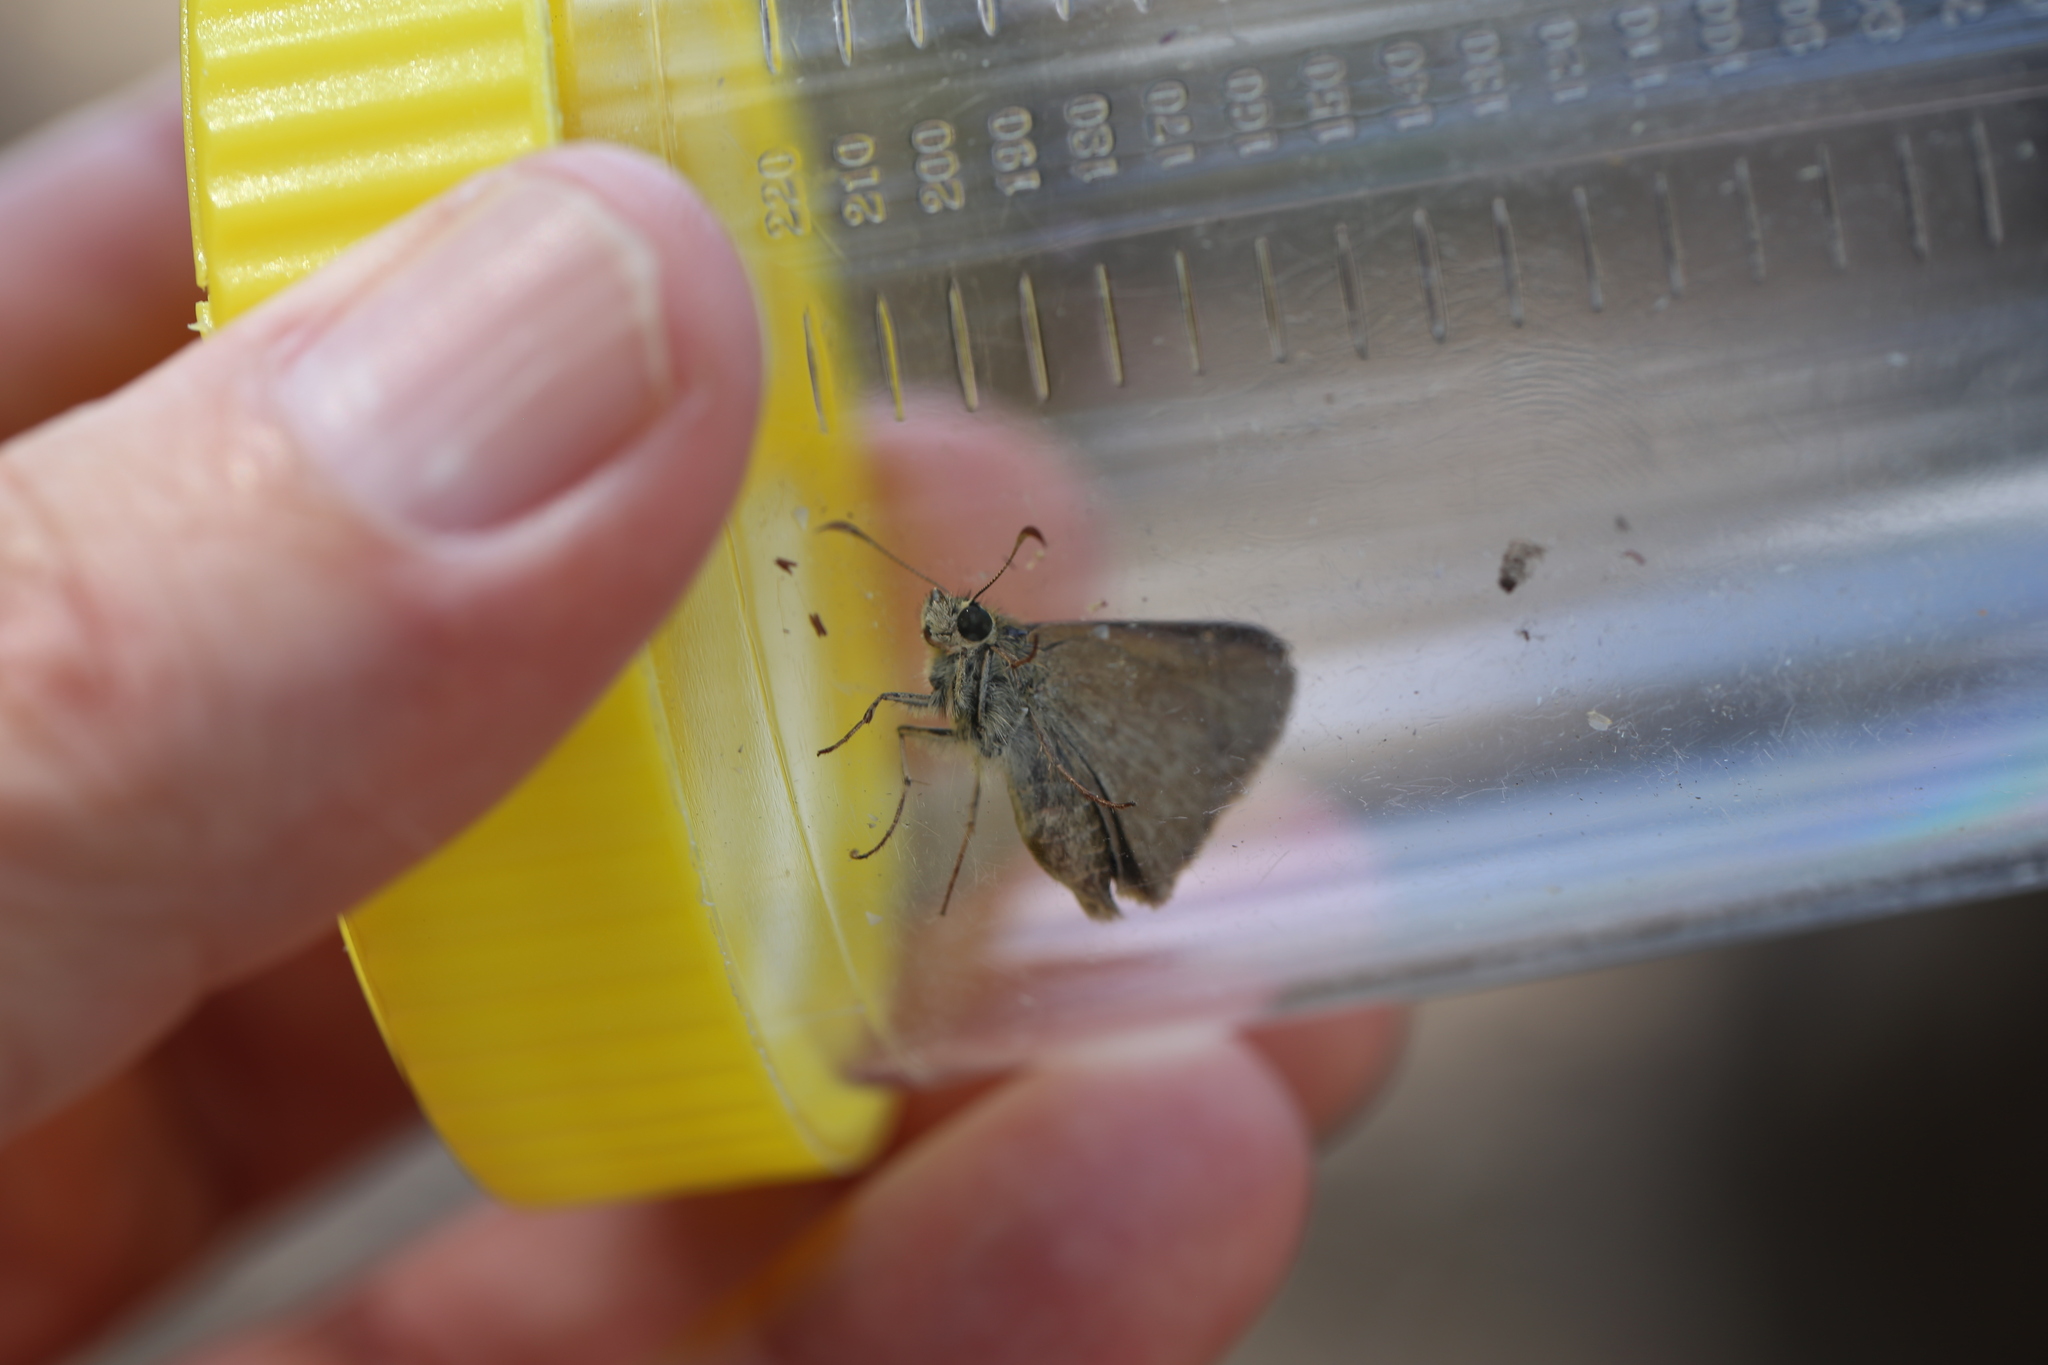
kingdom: Animalia
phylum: Arthropoda
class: Insecta
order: Lepidoptera
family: Hesperiidae
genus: Toxidia
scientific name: Toxidia
